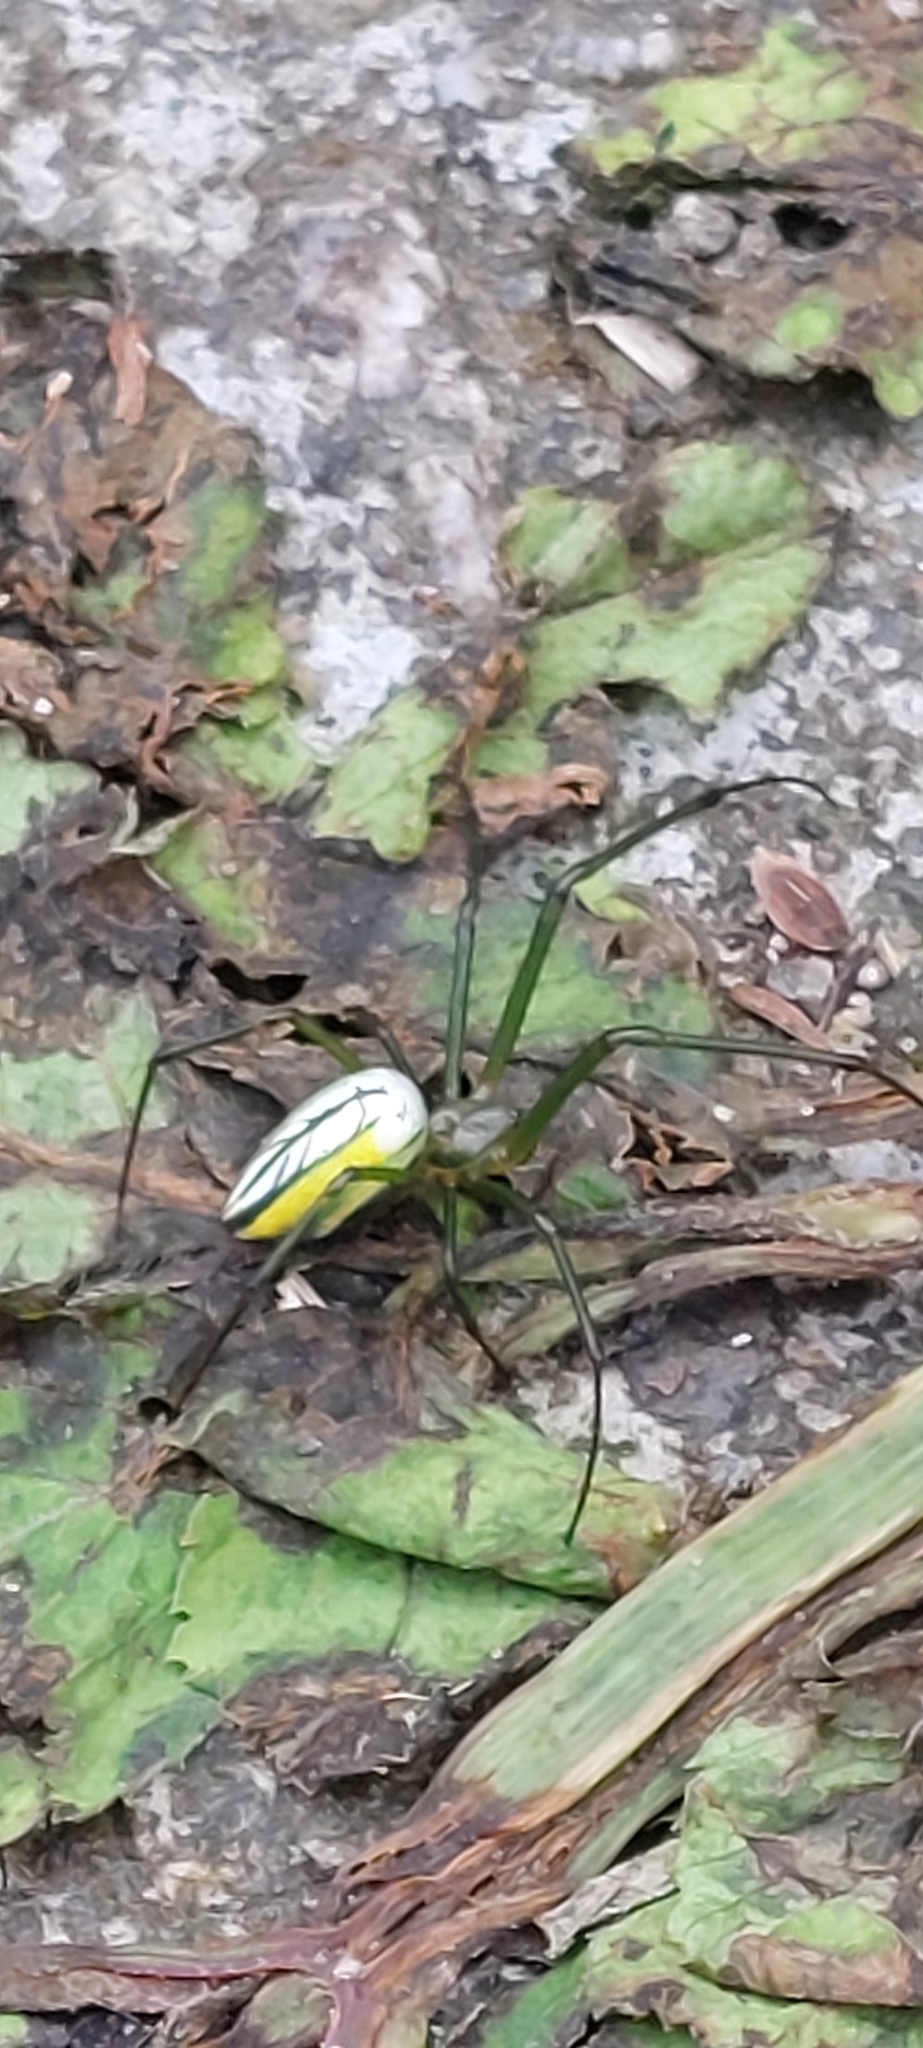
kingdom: Animalia
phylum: Arthropoda
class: Arachnida
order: Araneae
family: Tetragnathidae
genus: Leucauge
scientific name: Leucauge celebesiana
